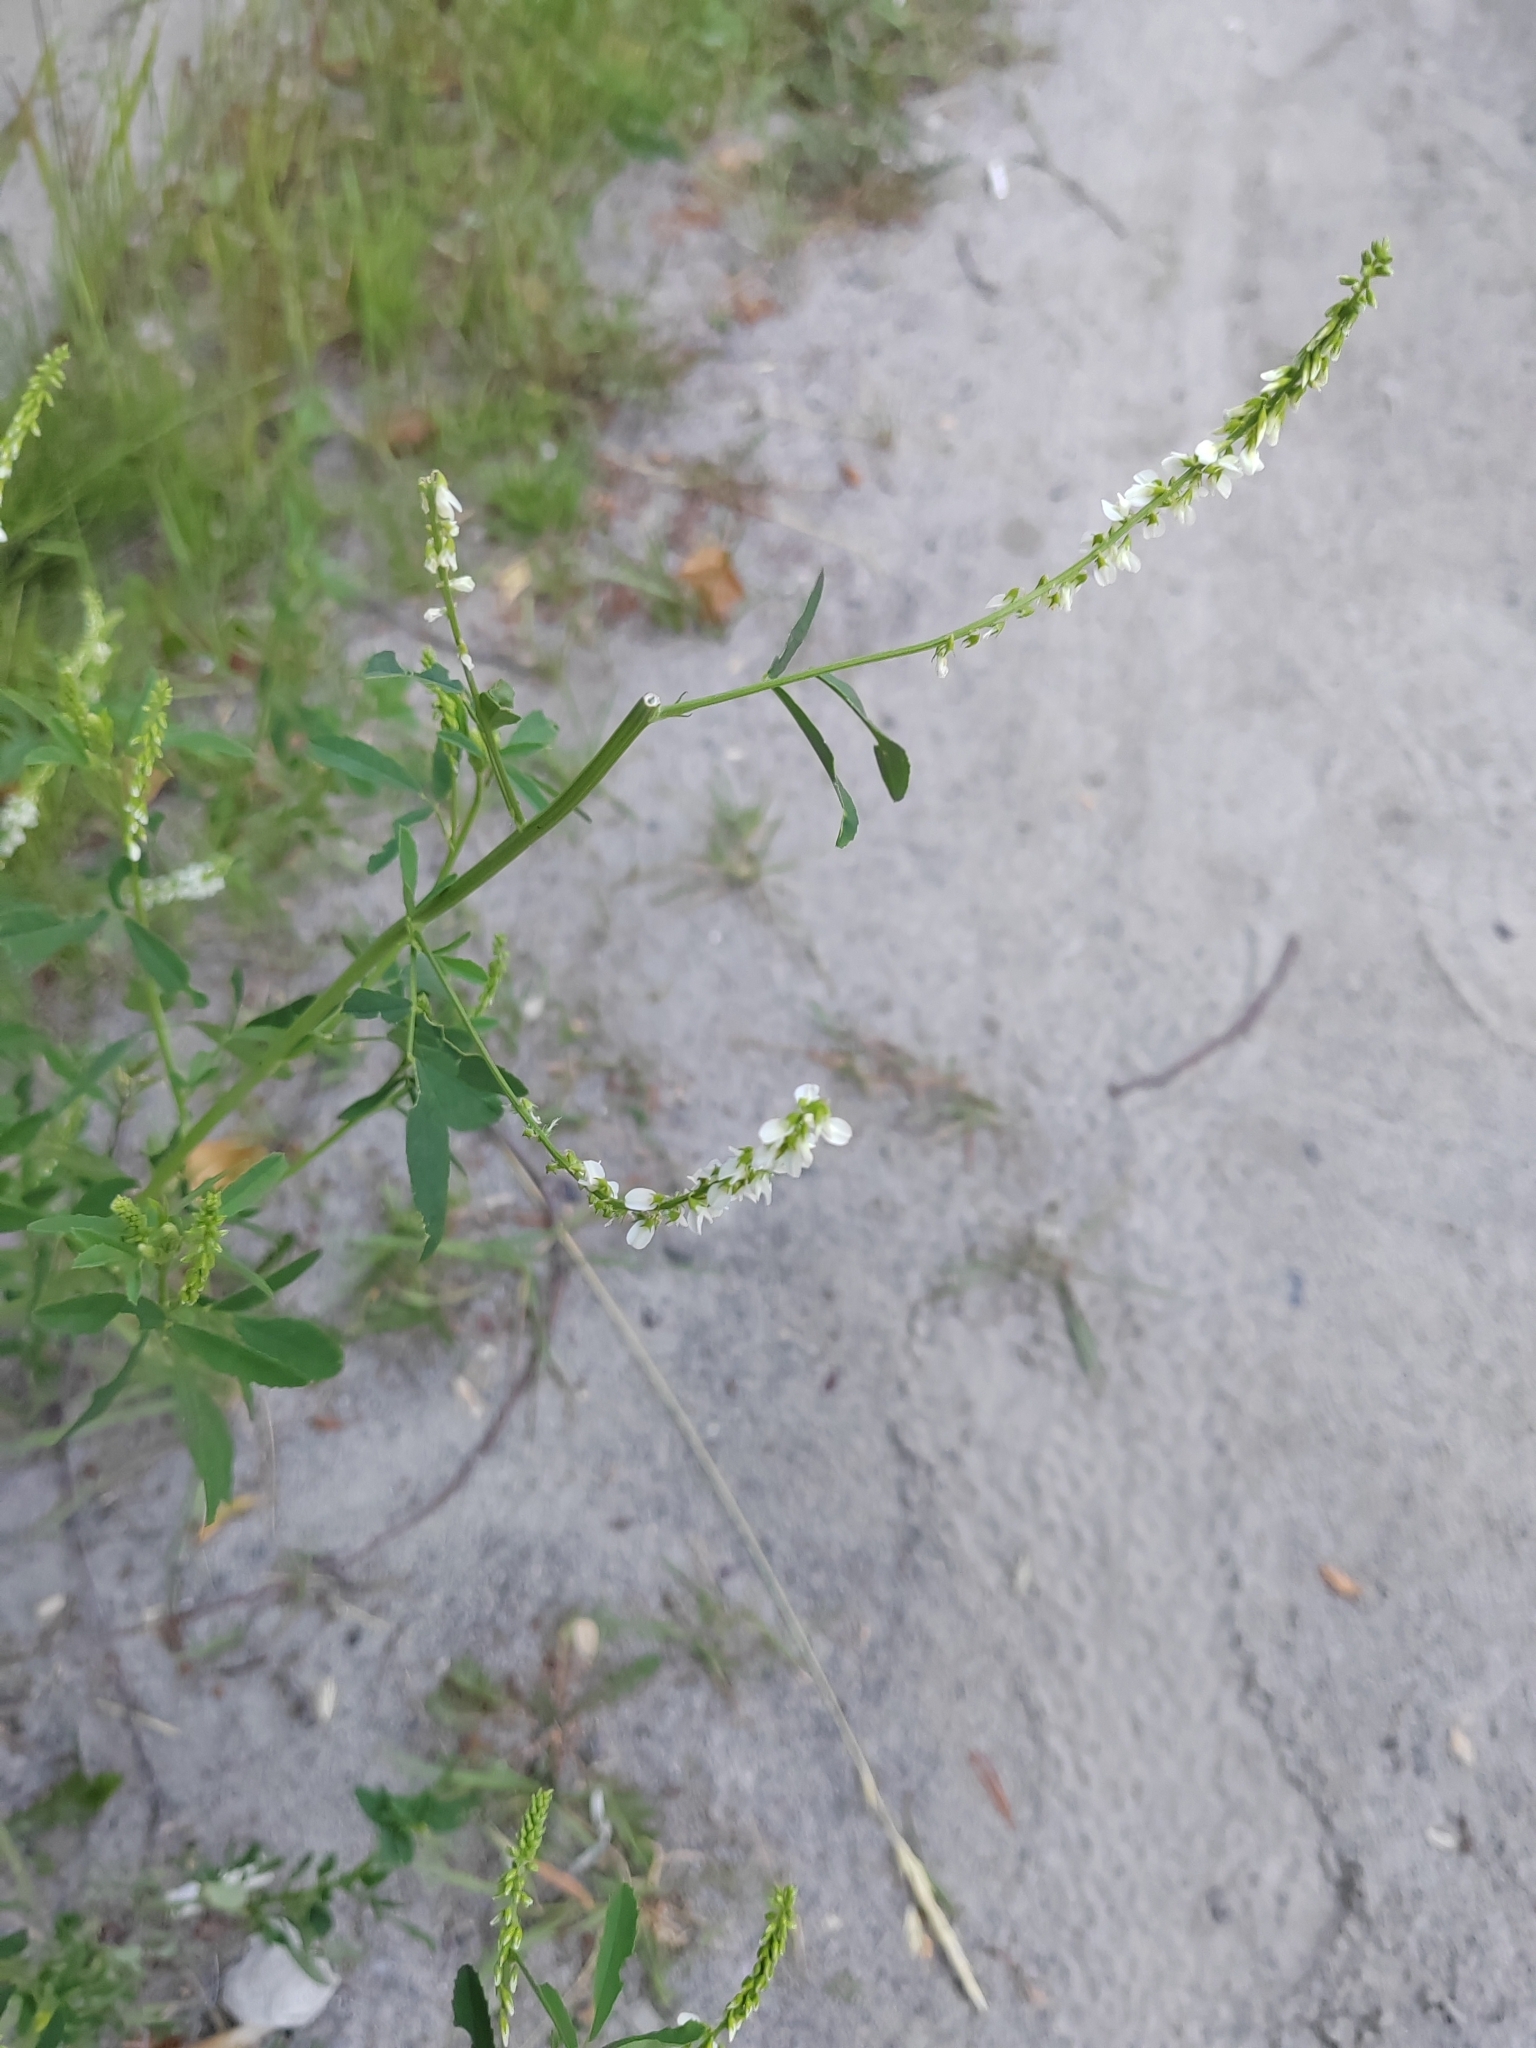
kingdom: Plantae
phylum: Tracheophyta
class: Magnoliopsida
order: Fabales
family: Fabaceae
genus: Melilotus
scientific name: Melilotus albus
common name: White melilot
